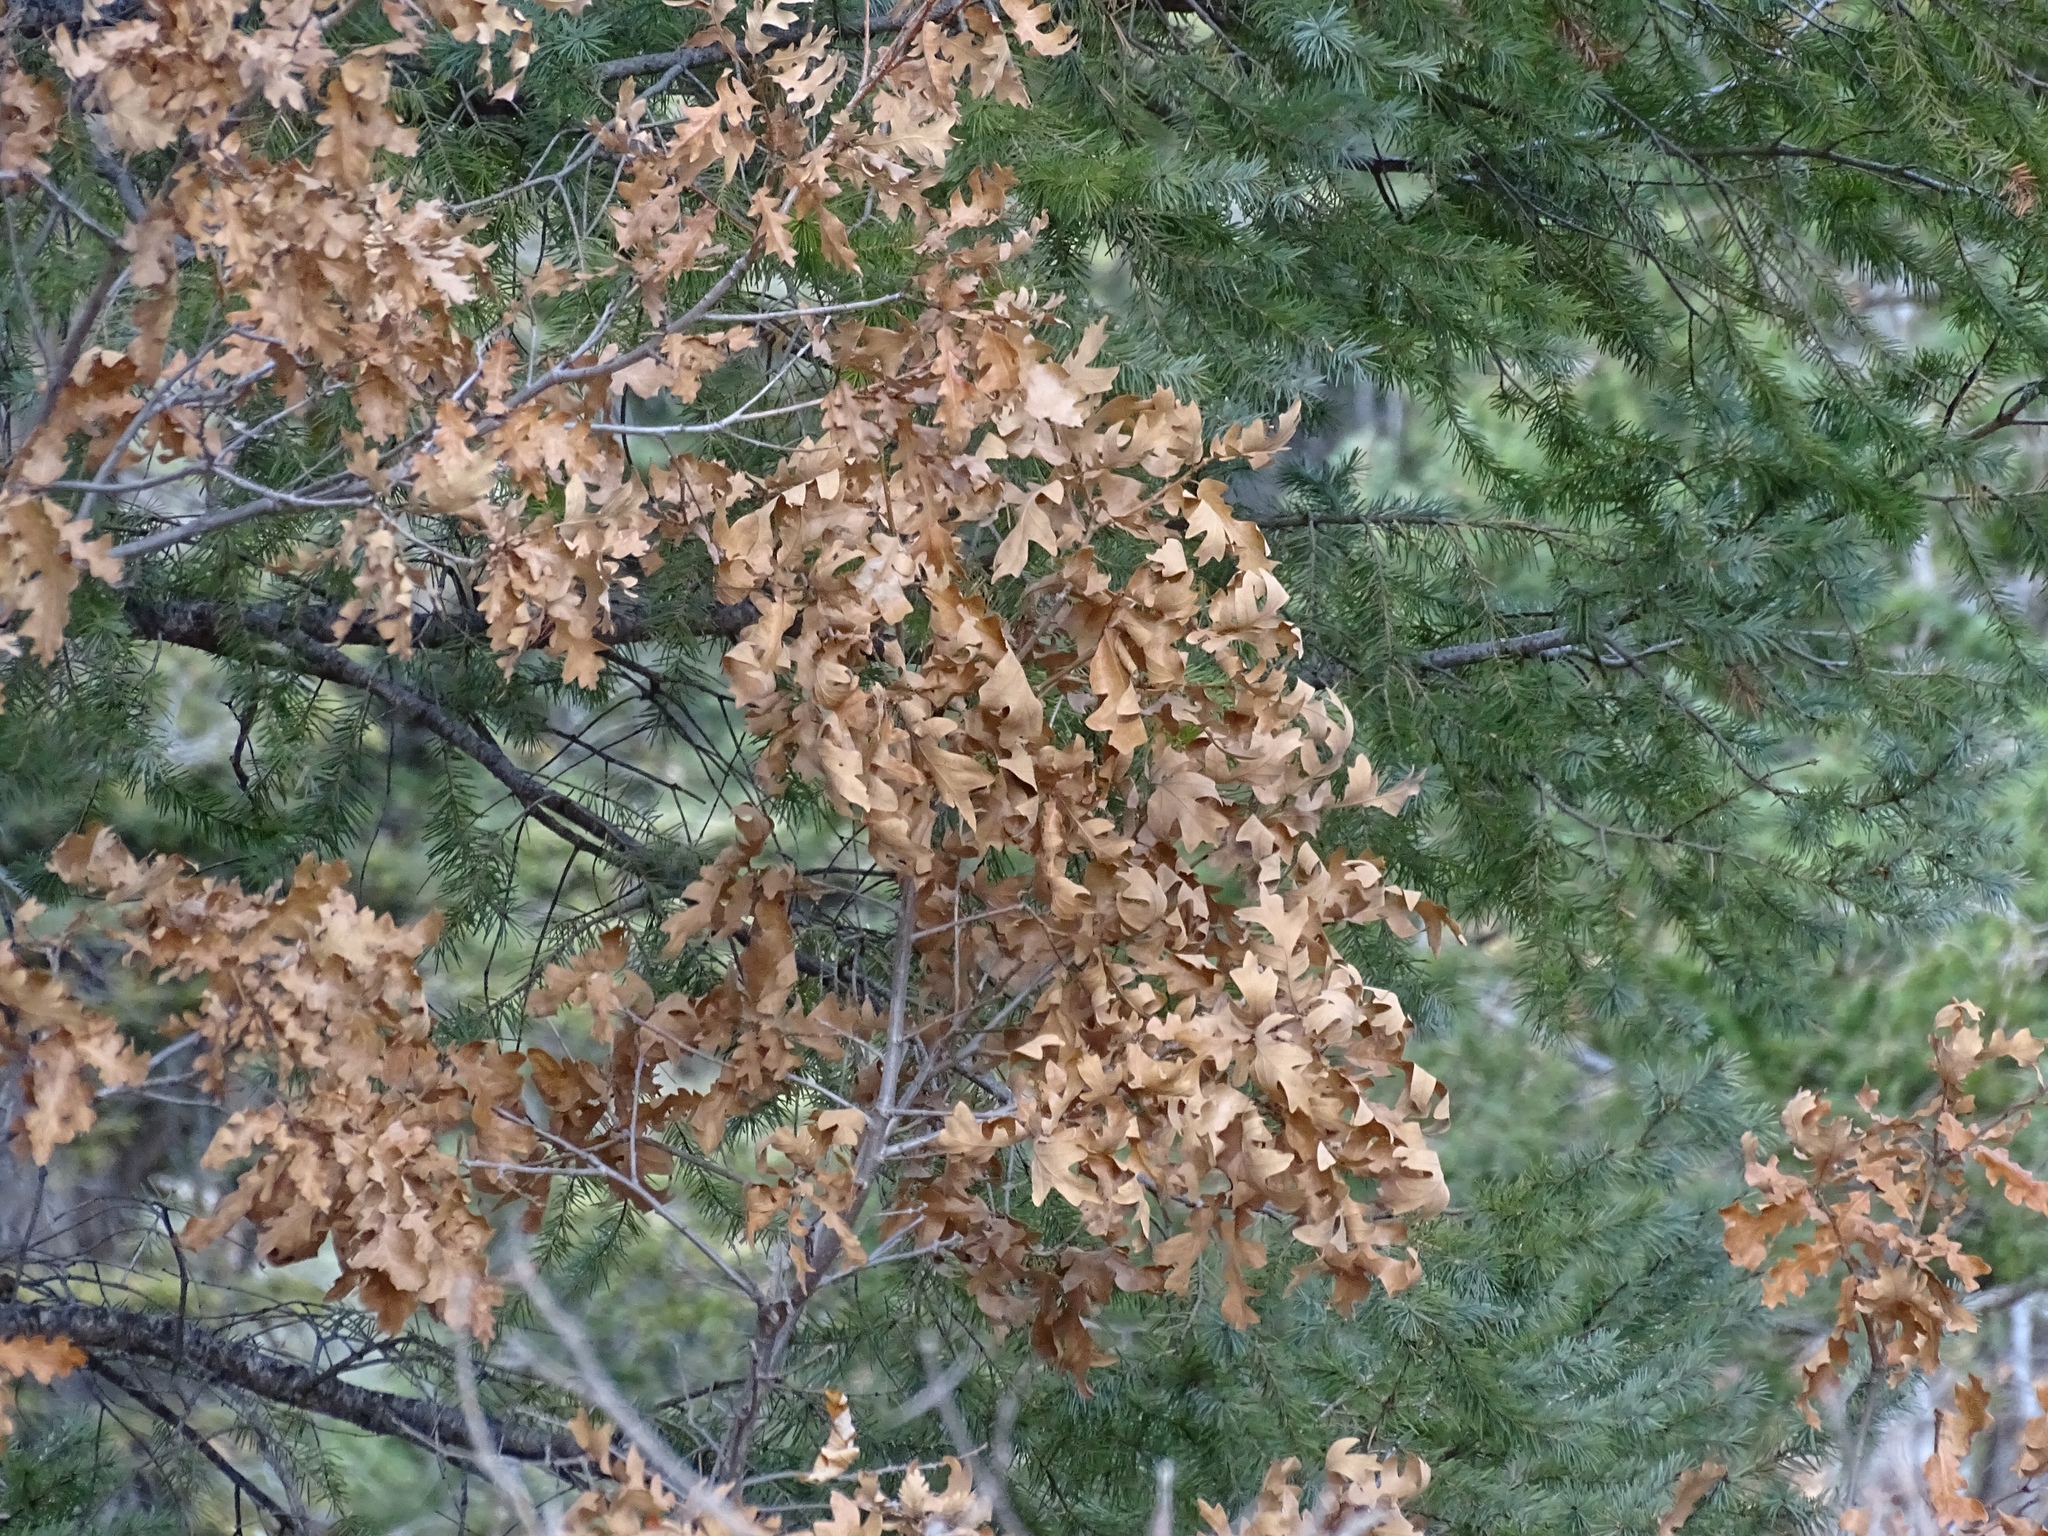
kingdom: Plantae
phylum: Tracheophyta
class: Magnoliopsida
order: Fagales
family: Fagaceae
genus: Quercus
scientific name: Quercus gambelii
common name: Gambel oak
